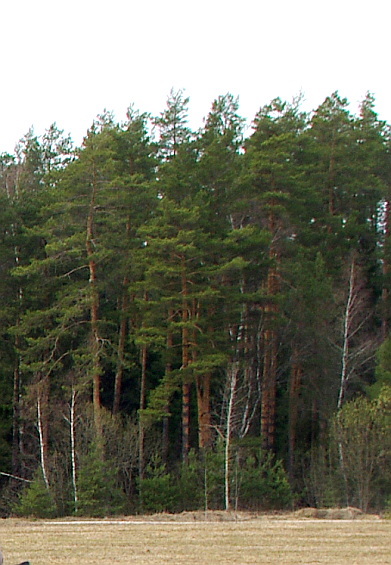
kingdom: Plantae
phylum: Tracheophyta
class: Pinopsida
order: Pinales
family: Pinaceae
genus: Pinus
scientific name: Pinus sylvestris
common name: Scots pine
